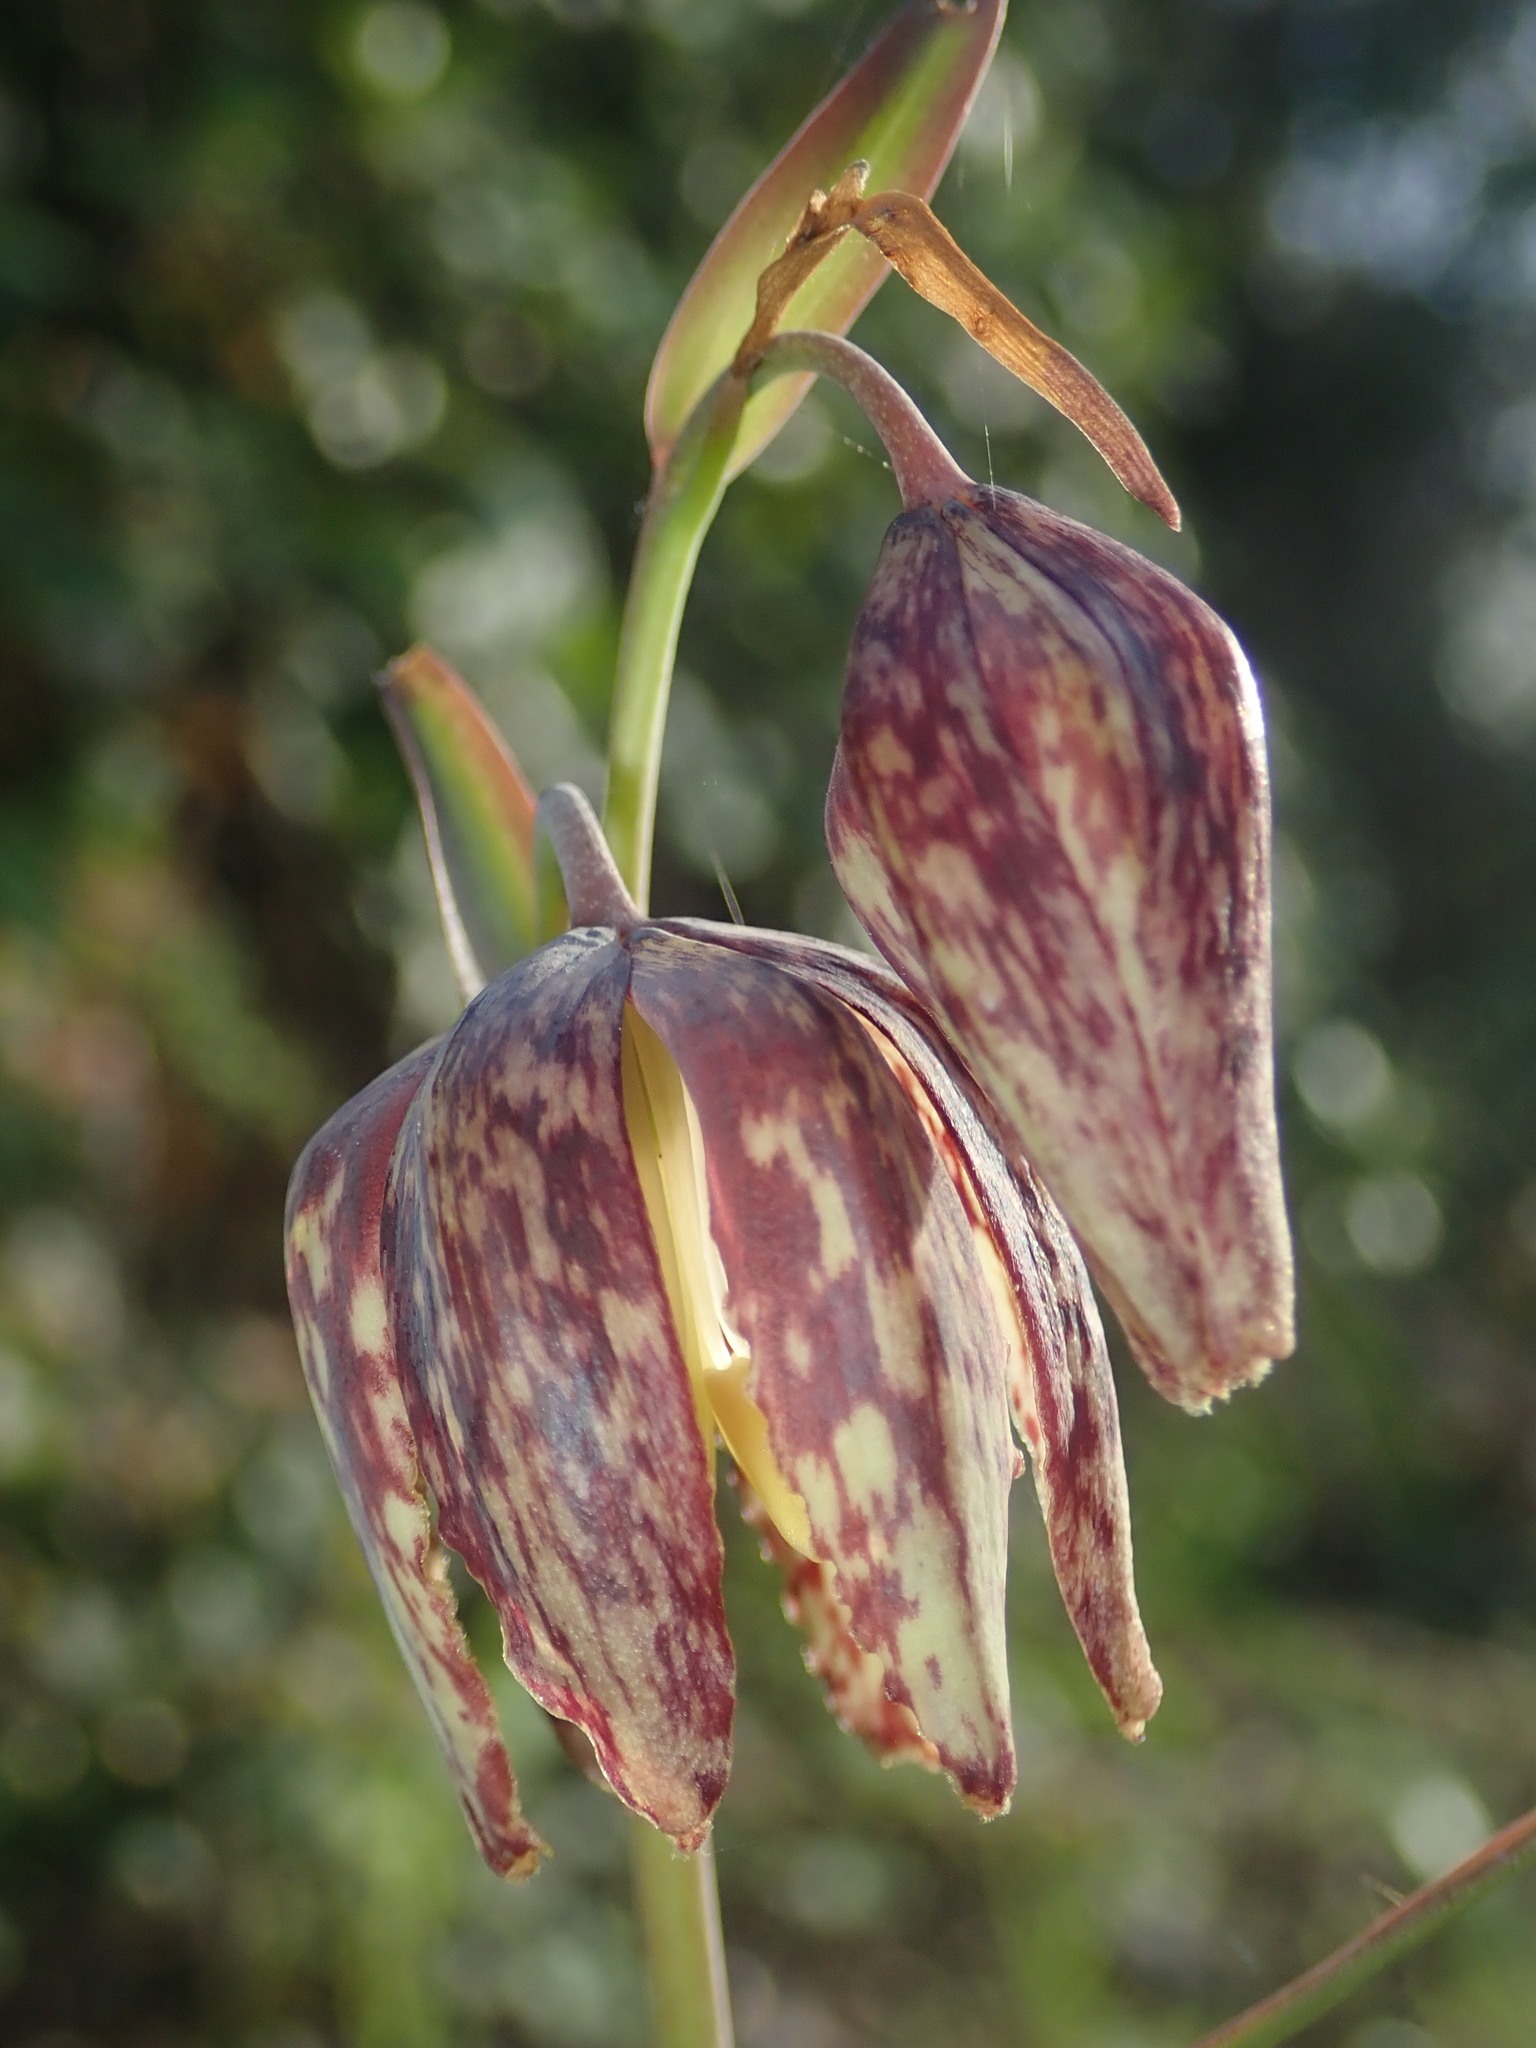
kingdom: Plantae
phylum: Tracheophyta
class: Liliopsida
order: Liliales
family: Liliaceae
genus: Fritillaria
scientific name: Fritillaria affinis
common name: Ojai fritillary
